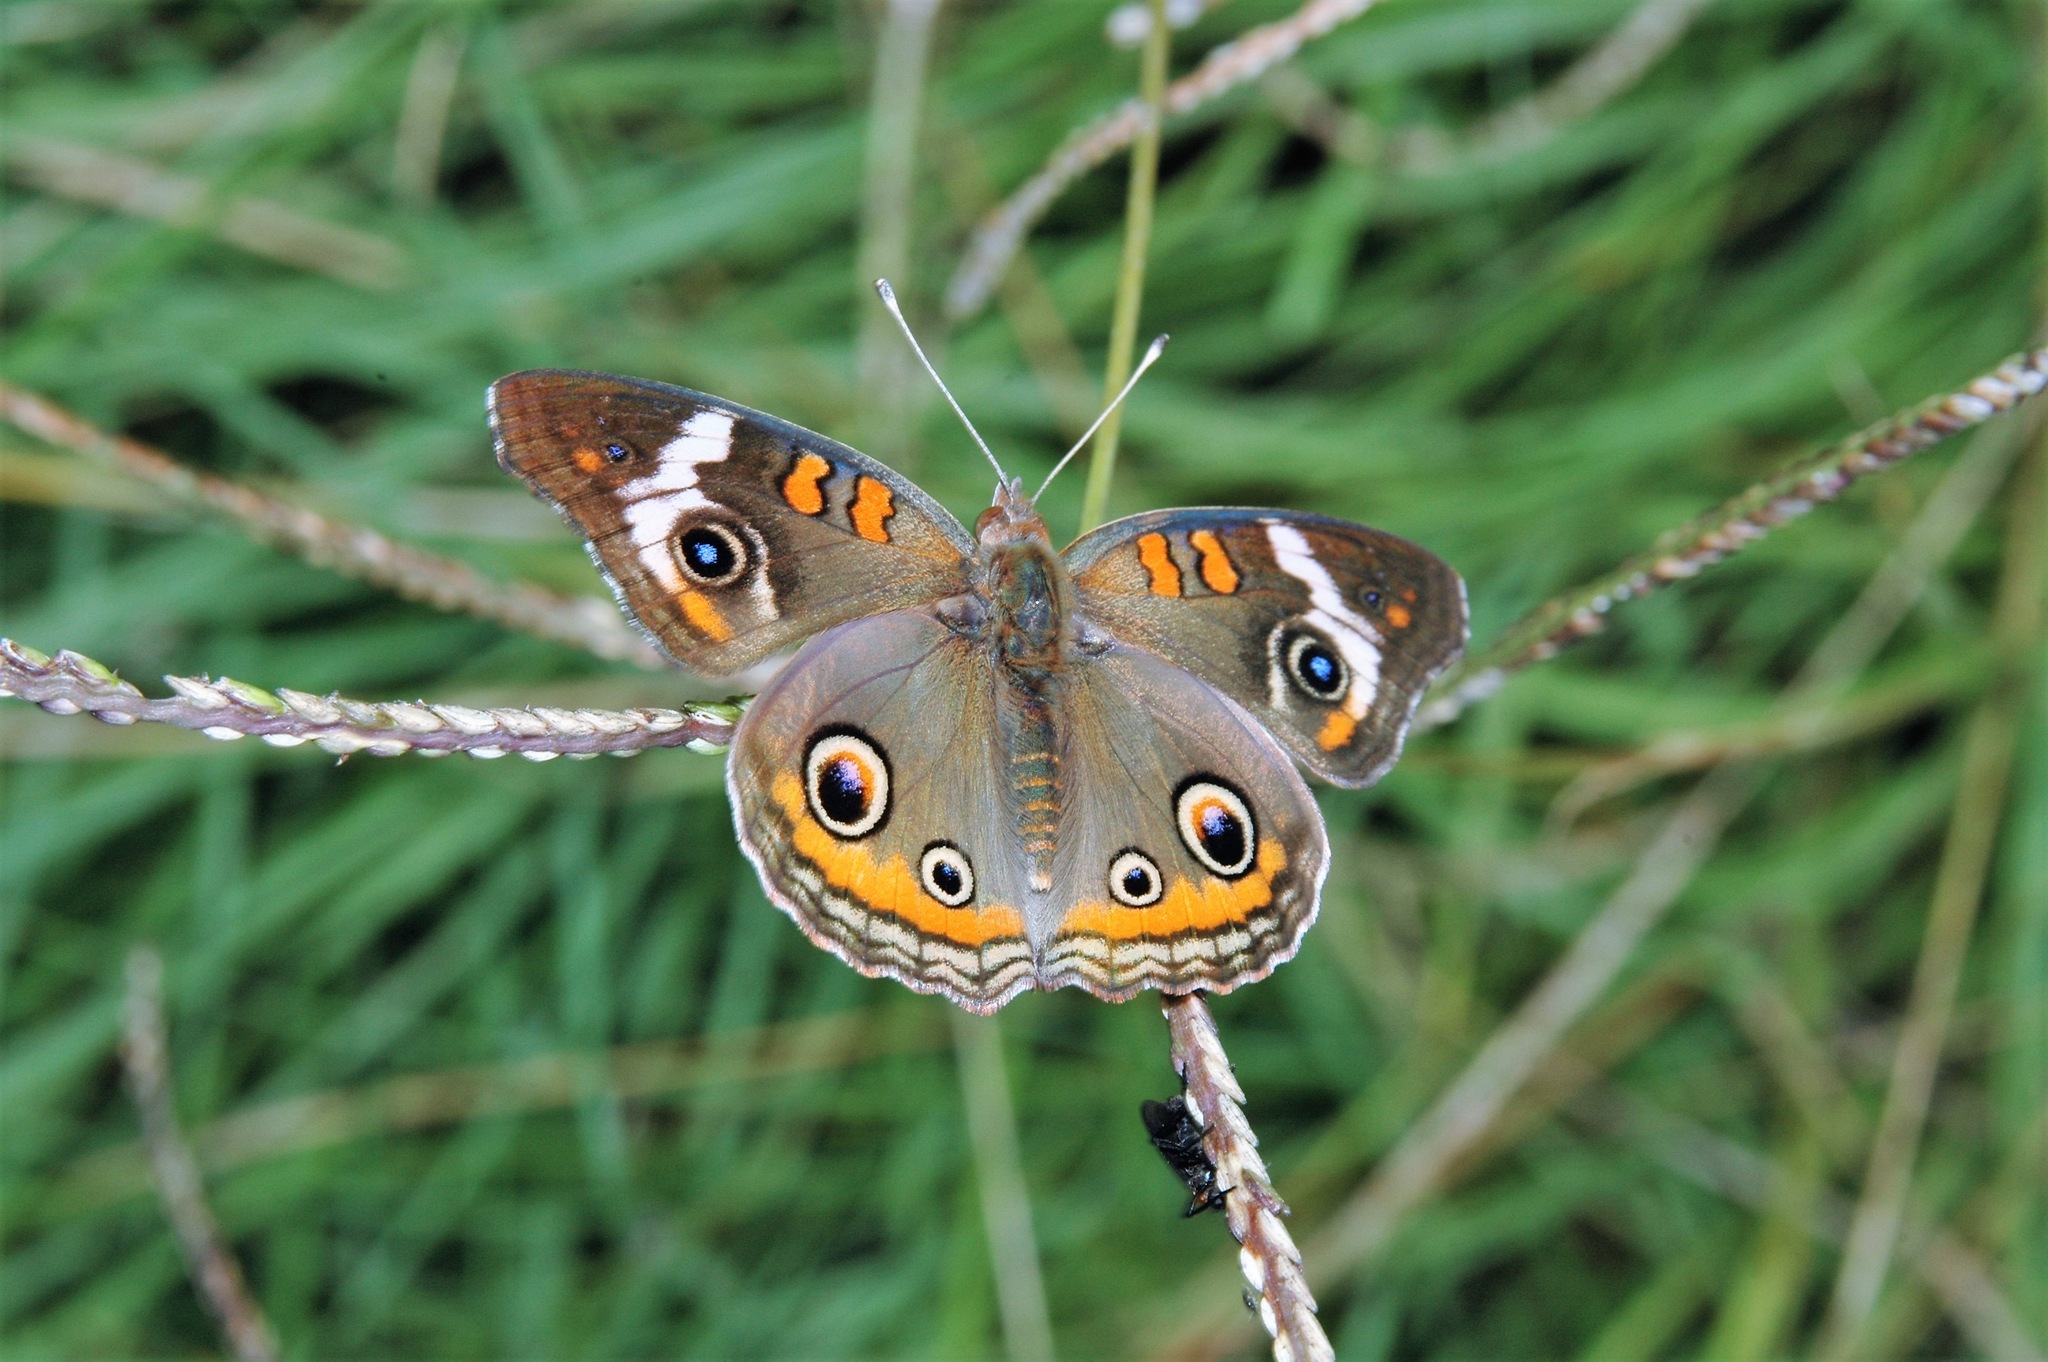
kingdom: Animalia
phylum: Arthropoda
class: Insecta
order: Lepidoptera
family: Nymphalidae
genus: Junonia
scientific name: Junonia coenia
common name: Common buckeye
